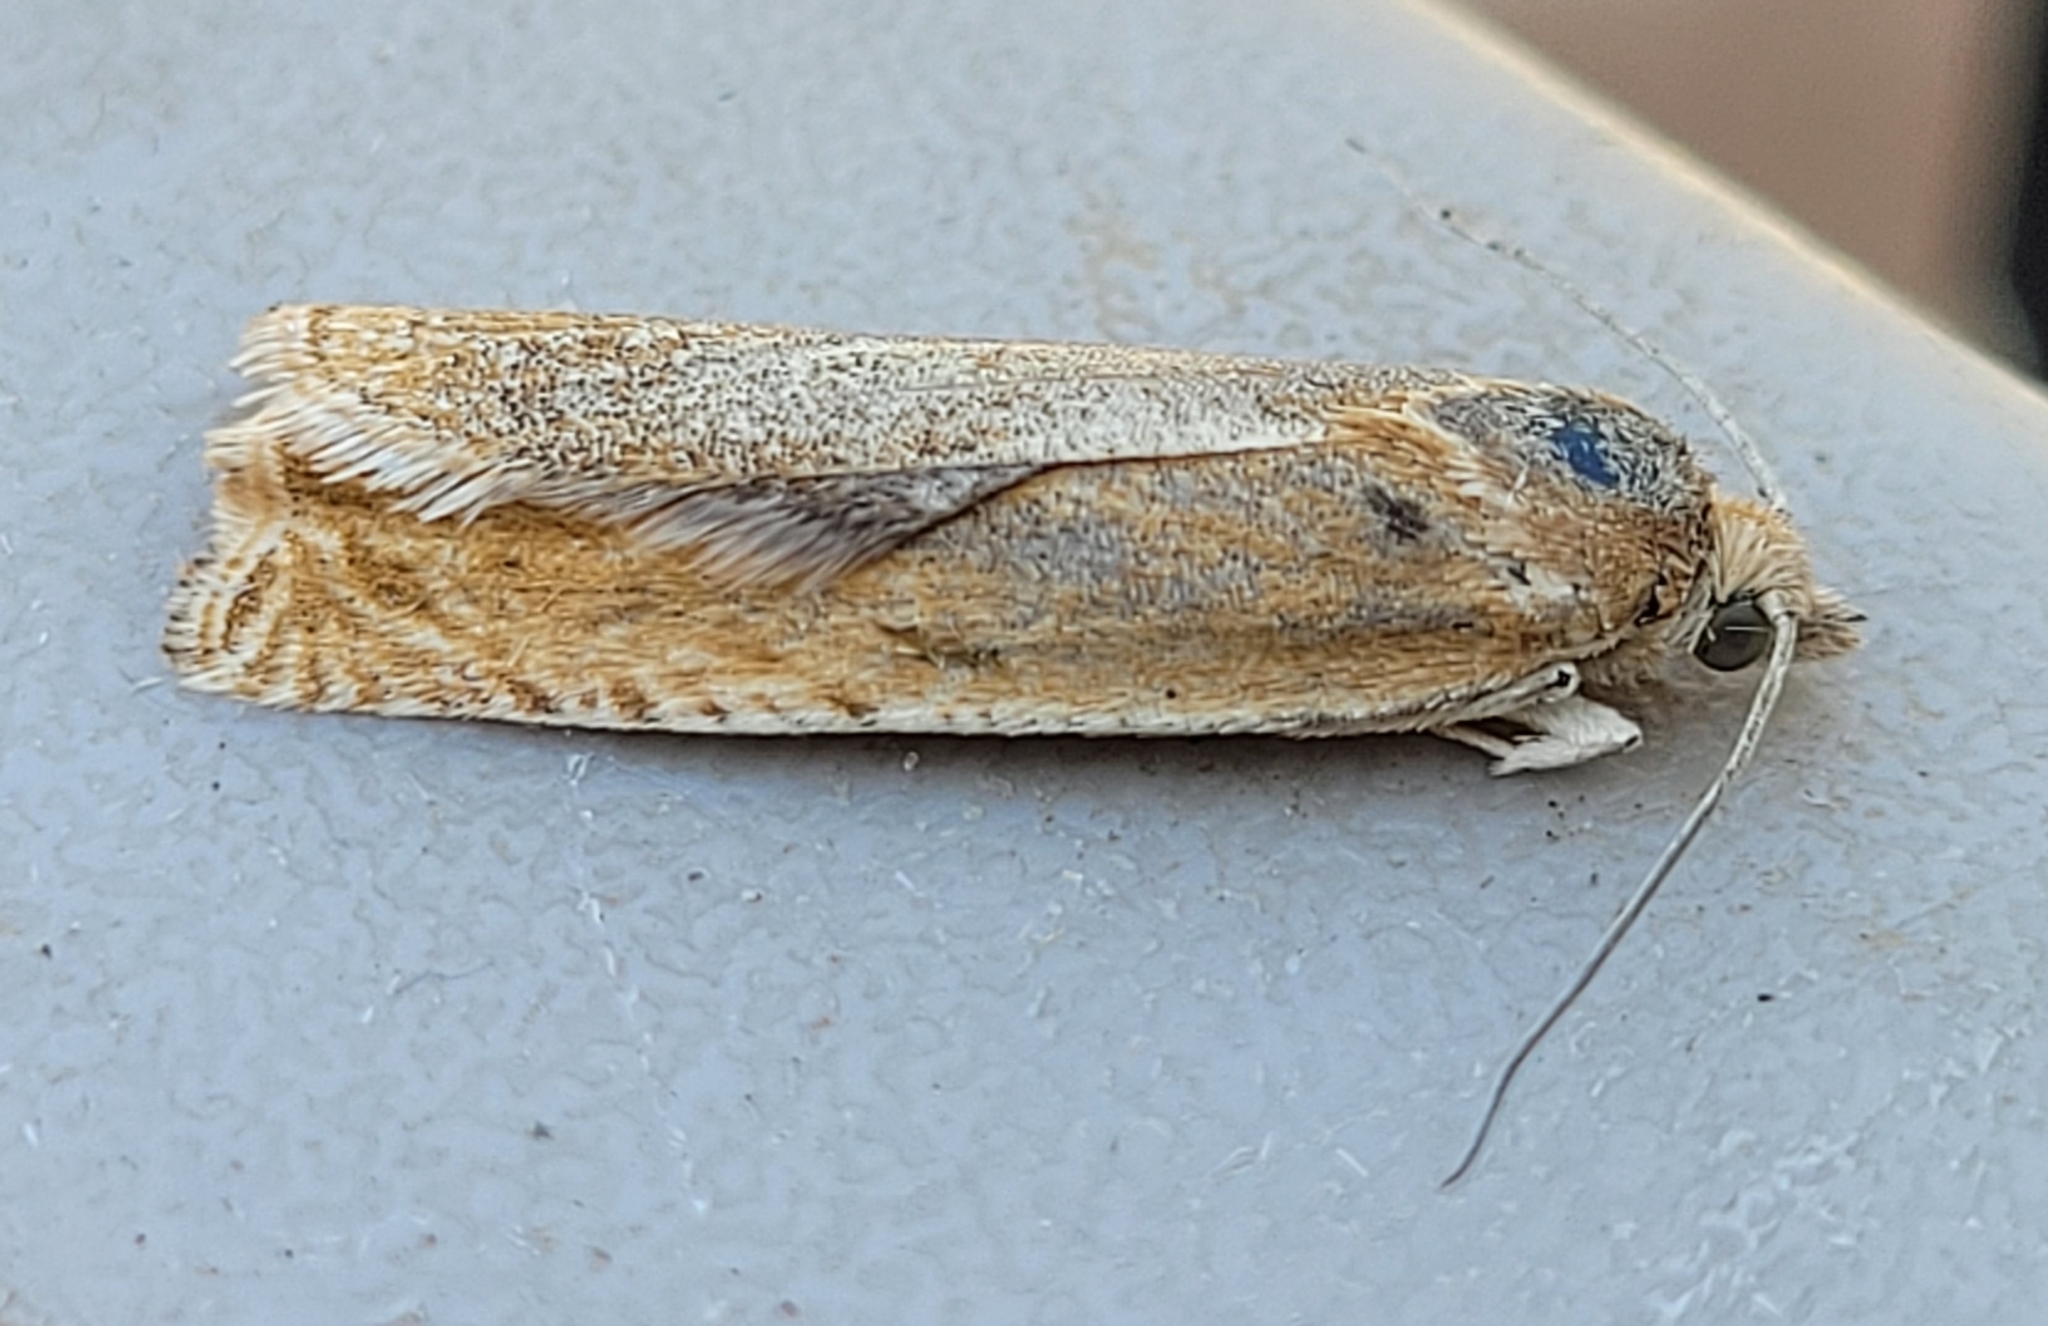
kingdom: Animalia
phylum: Arthropoda
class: Insecta
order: Lepidoptera
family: Tortricidae
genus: Hystrichophora
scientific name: Hystrichophora stygiana
